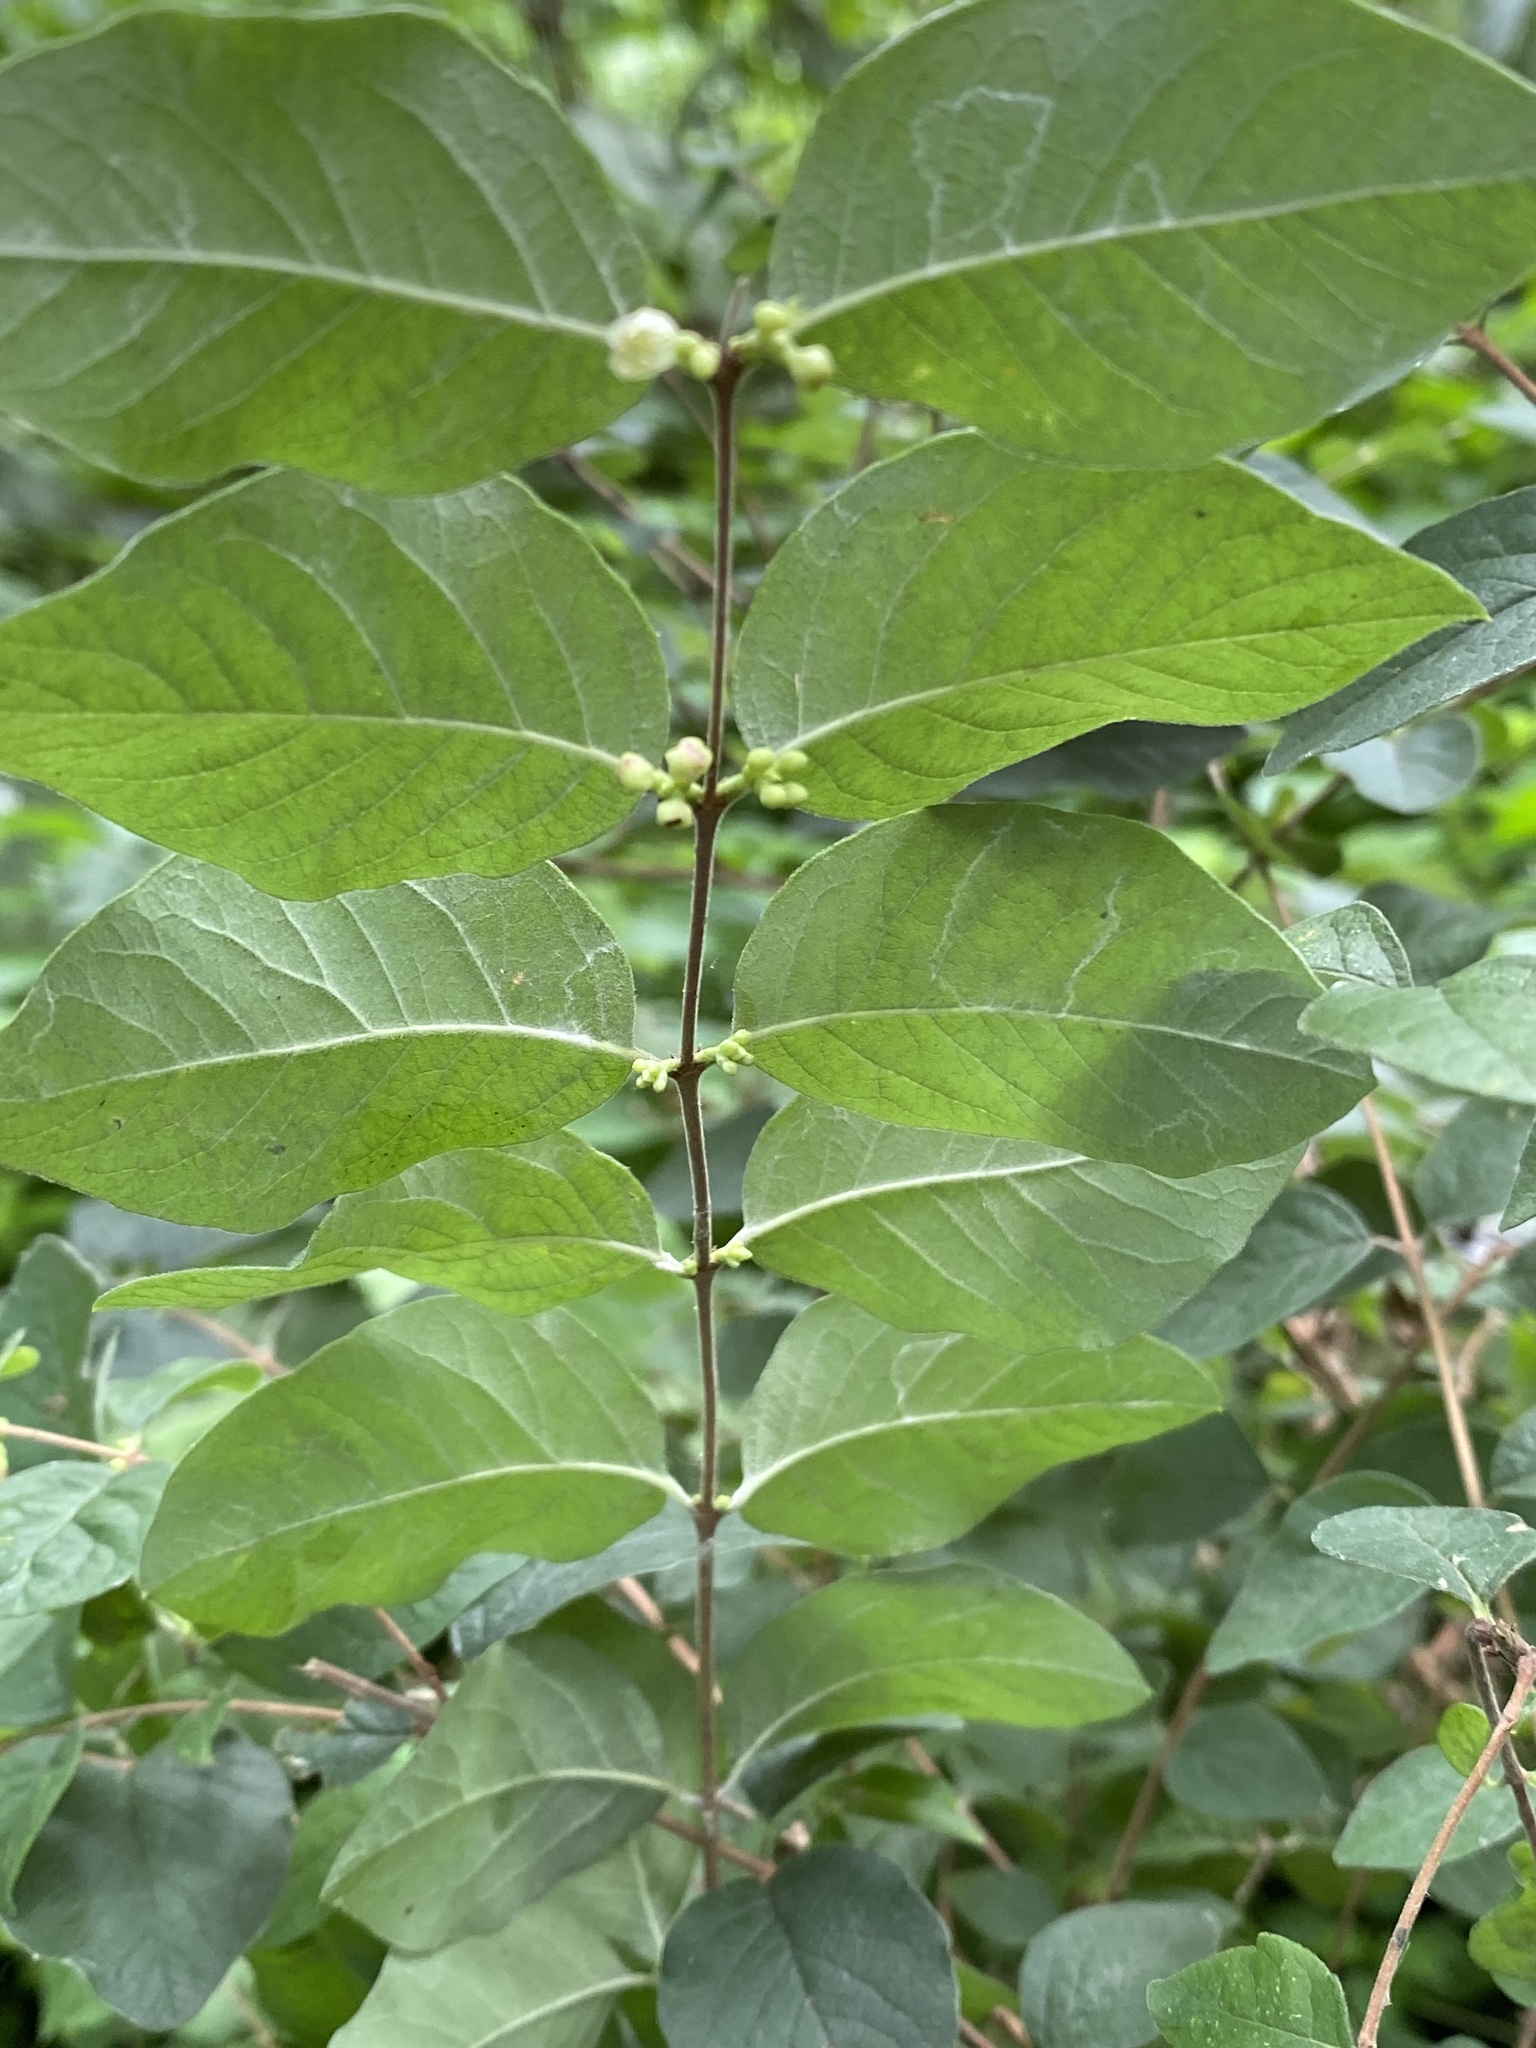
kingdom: Plantae
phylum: Tracheophyta
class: Magnoliopsida
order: Dipsacales
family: Caprifoliaceae
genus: Symphoricarpos
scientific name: Symphoricarpos orbiculatus
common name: Coralberry
